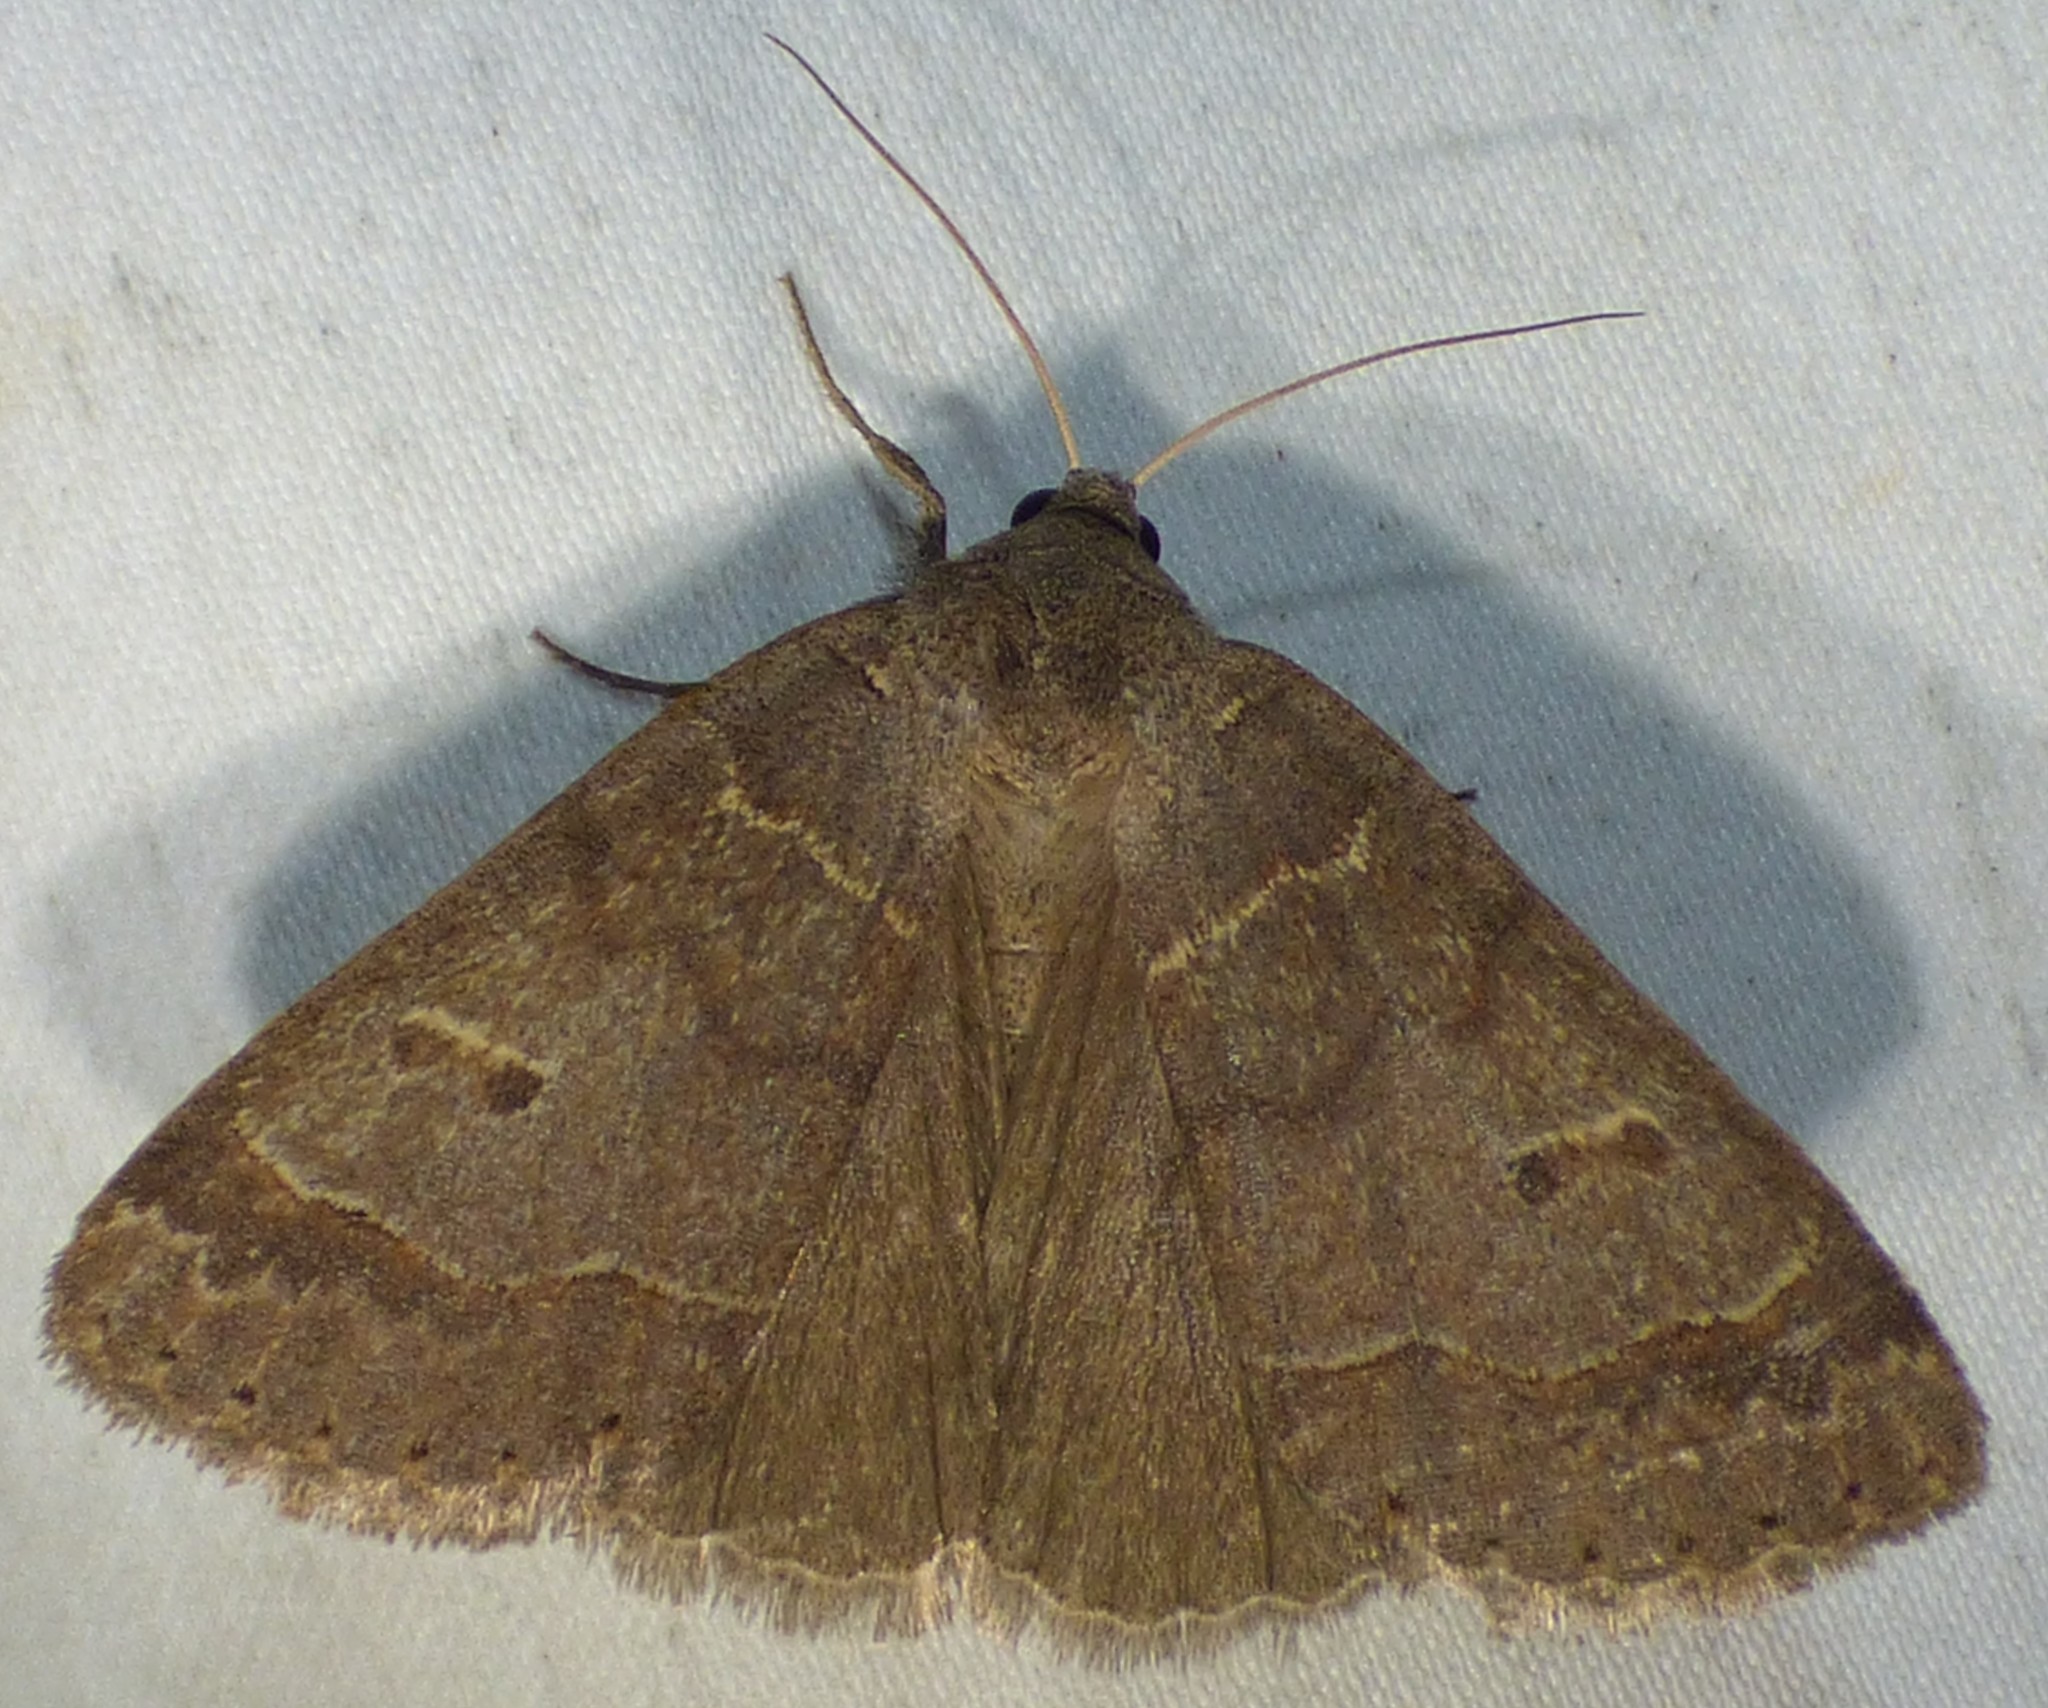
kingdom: Animalia
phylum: Arthropoda
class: Insecta
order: Lepidoptera
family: Erebidae
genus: Phoberia
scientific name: Phoberia atomaris
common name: Common oak moth
